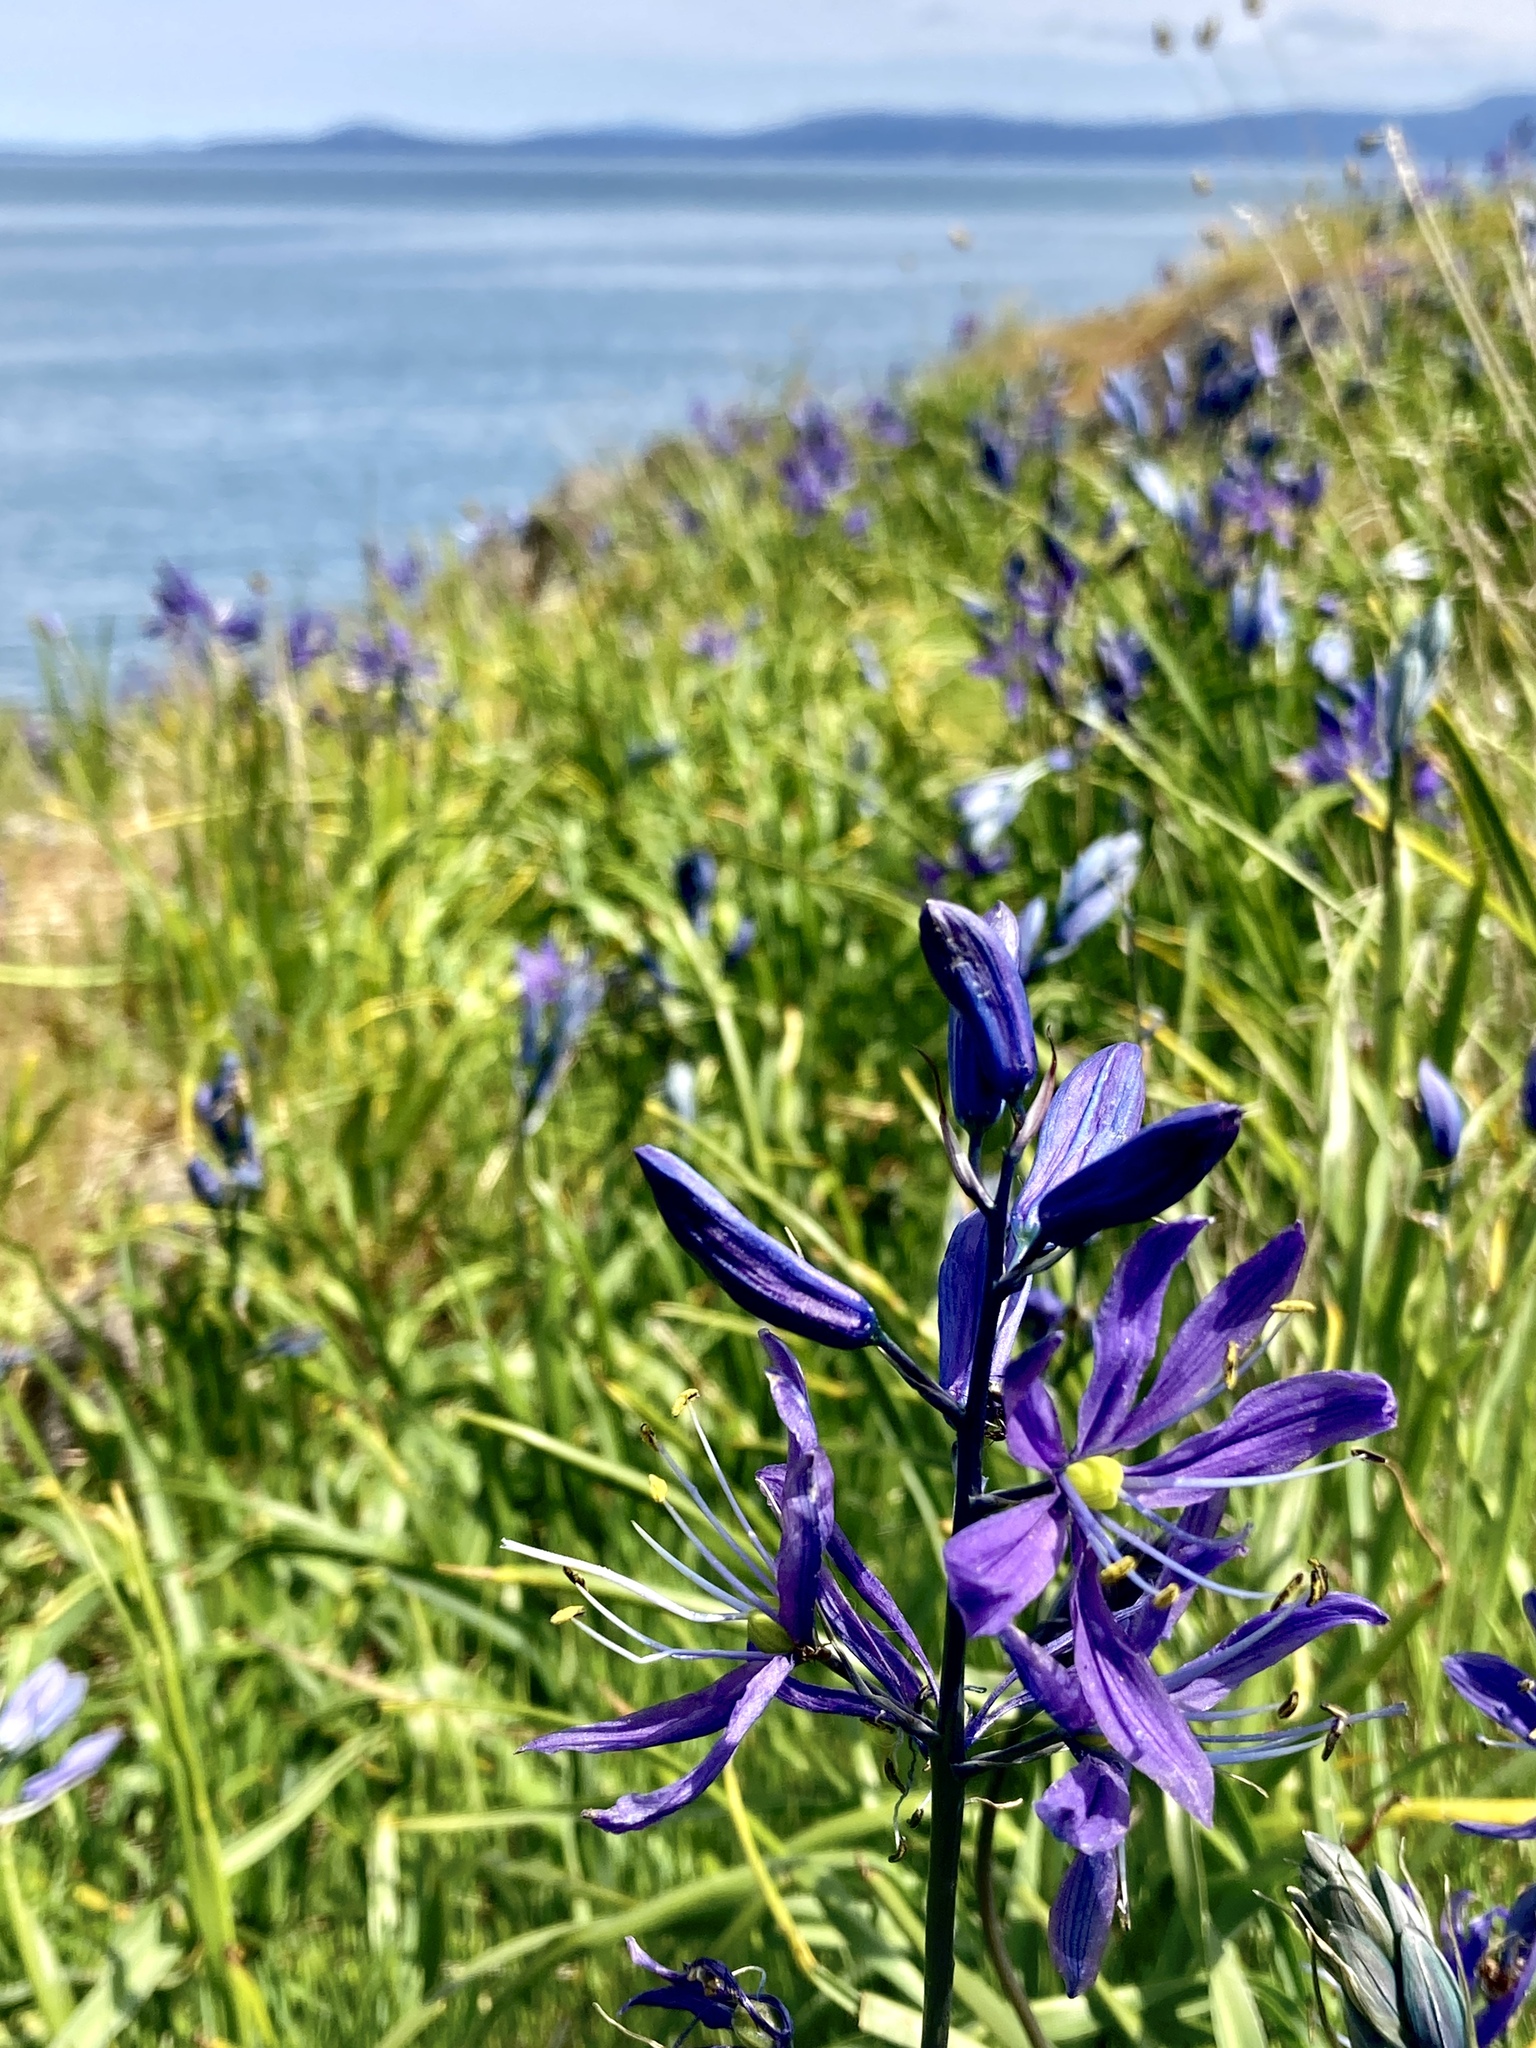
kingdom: Plantae
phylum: Tracheophyta
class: Liliopsida
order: Asparagales
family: Asparagaceae
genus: Camassia
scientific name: Camassia quamash
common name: Common camas
